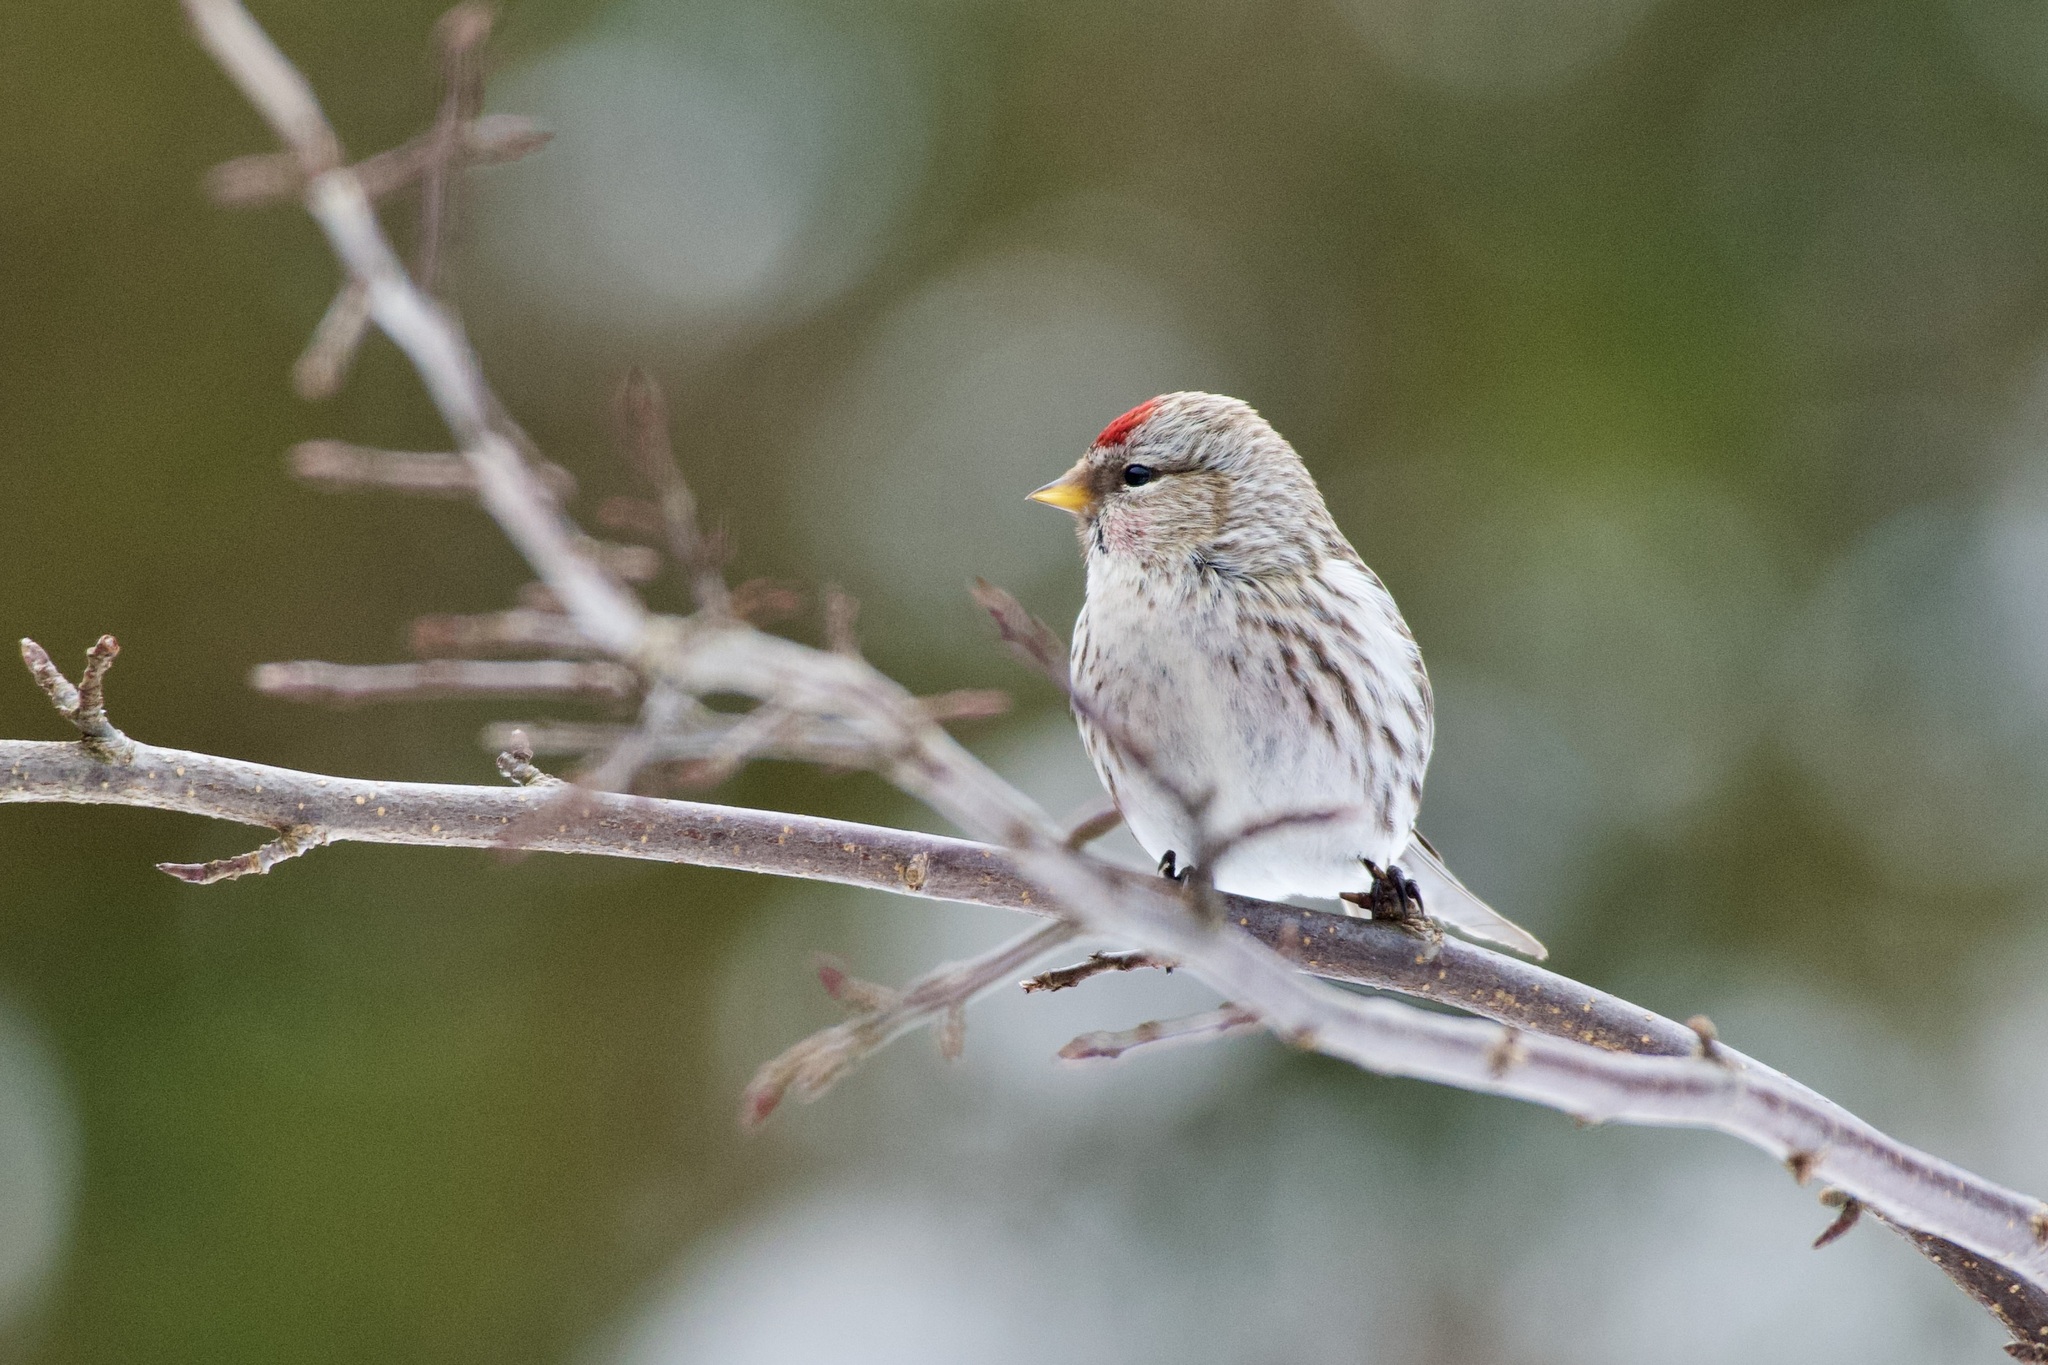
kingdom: Animalia
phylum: Chordata
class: Aves
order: Passeriformes
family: Fringillidae
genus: Acanthis
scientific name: Acanthis flammea
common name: Common redpoll
